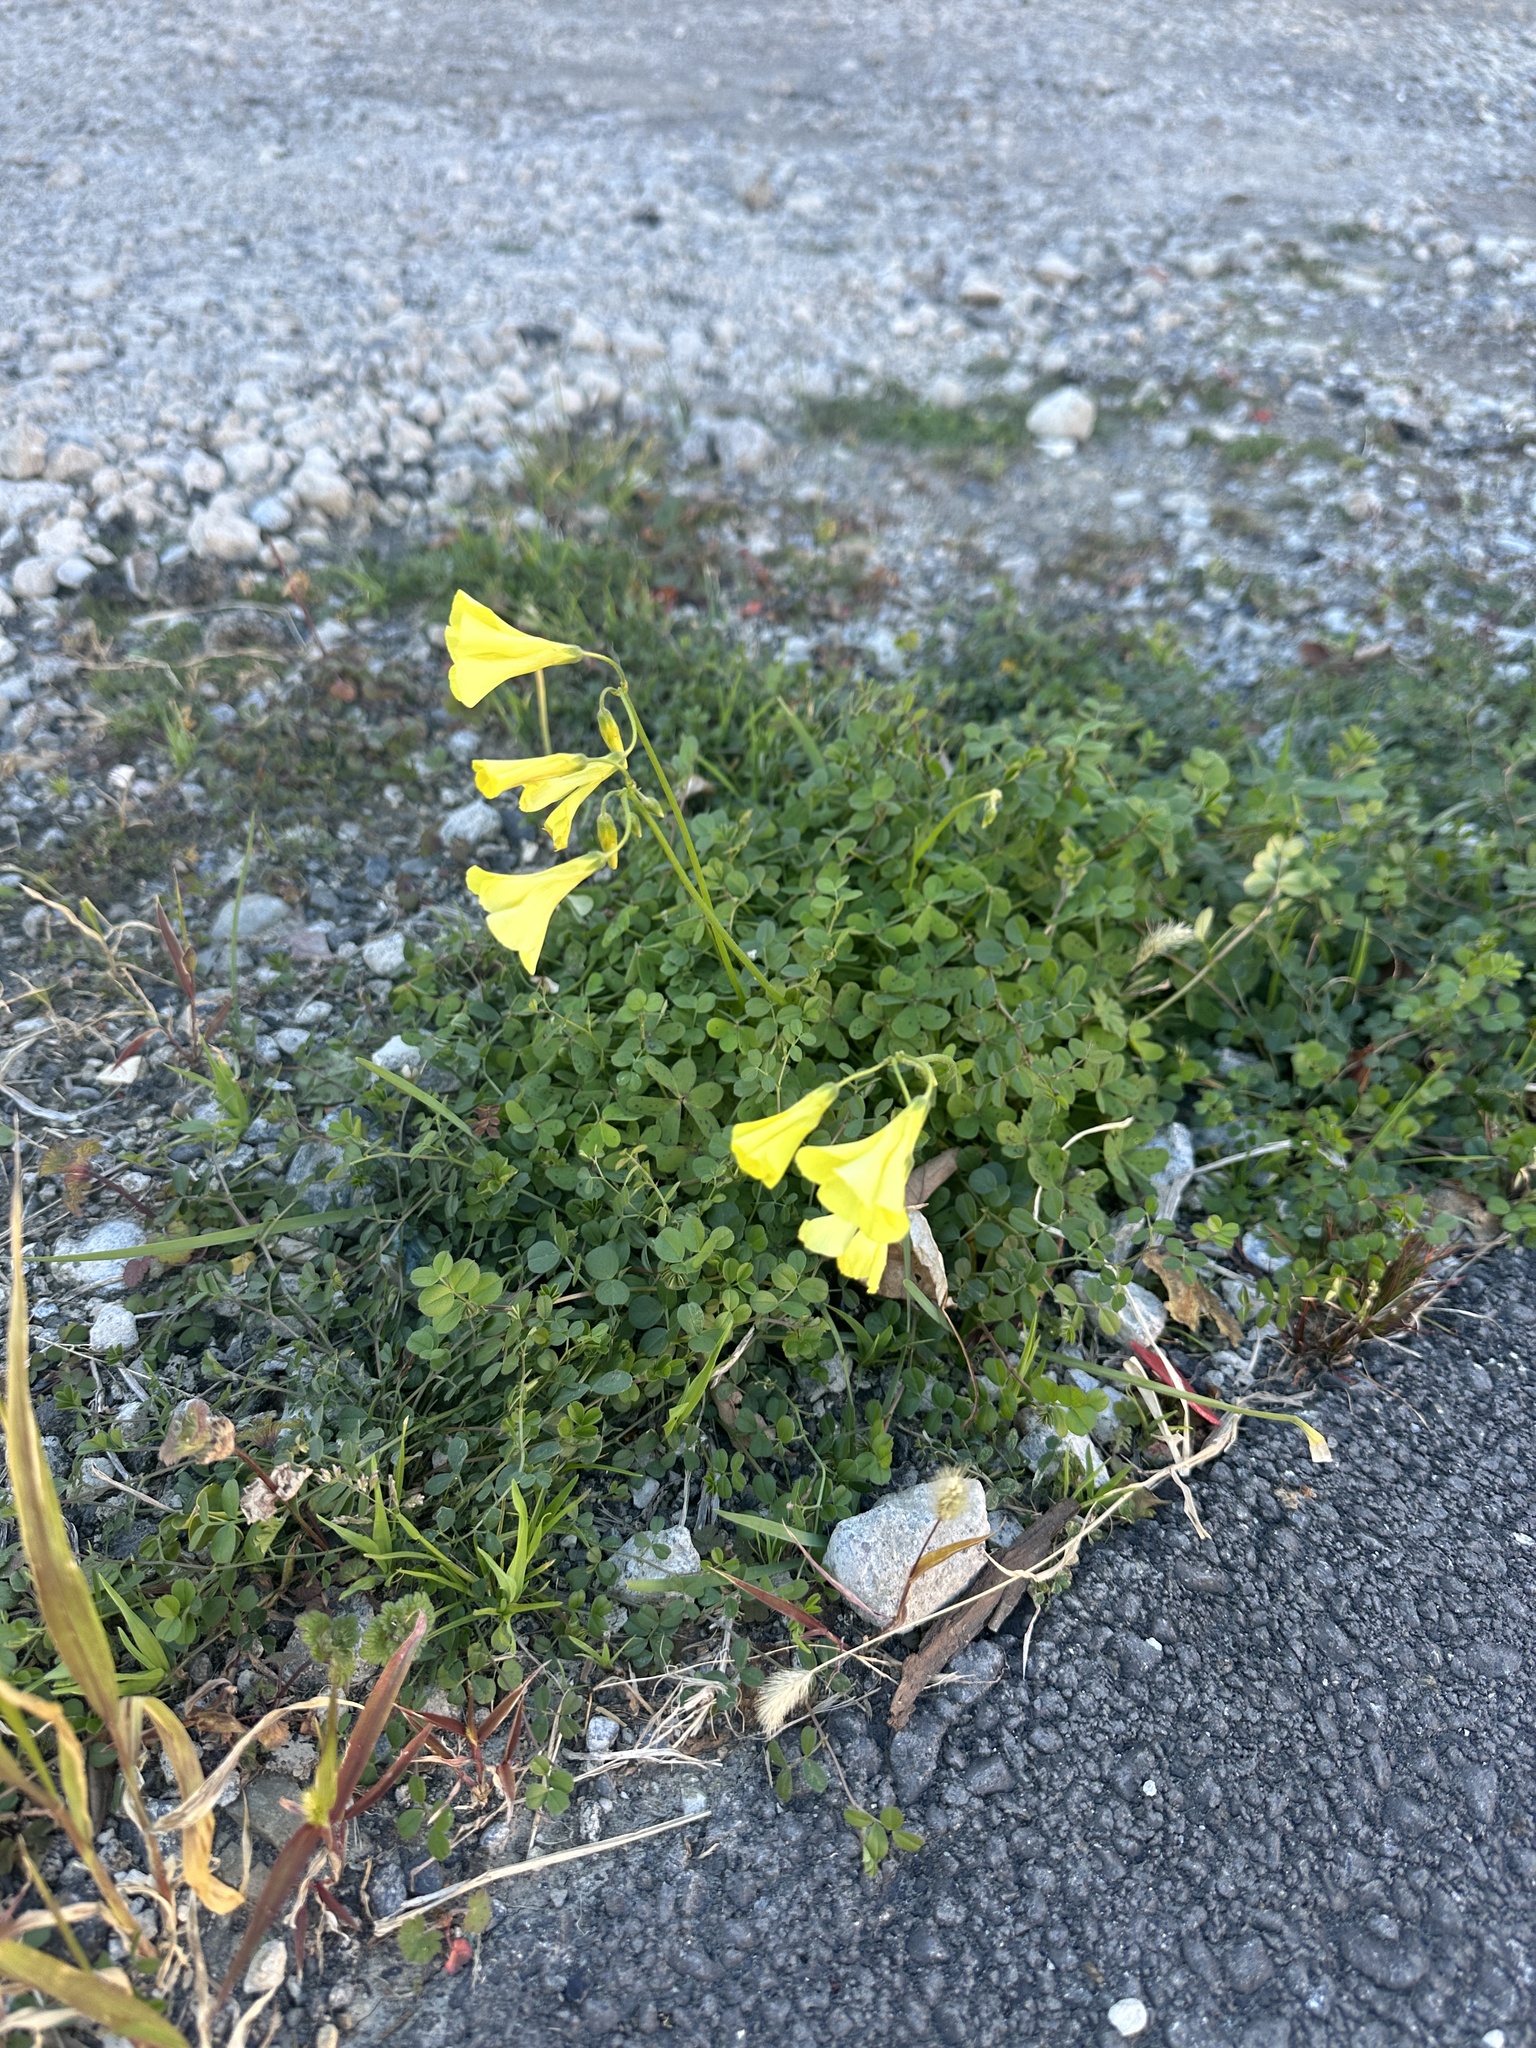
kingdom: Plantae
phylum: Tracheophyta
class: Magnoliopsida
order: Oxalidales
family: Oxalidaceae
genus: Oxalis
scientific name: Oxalis pes-caprae
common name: Bermuda-buttercup
